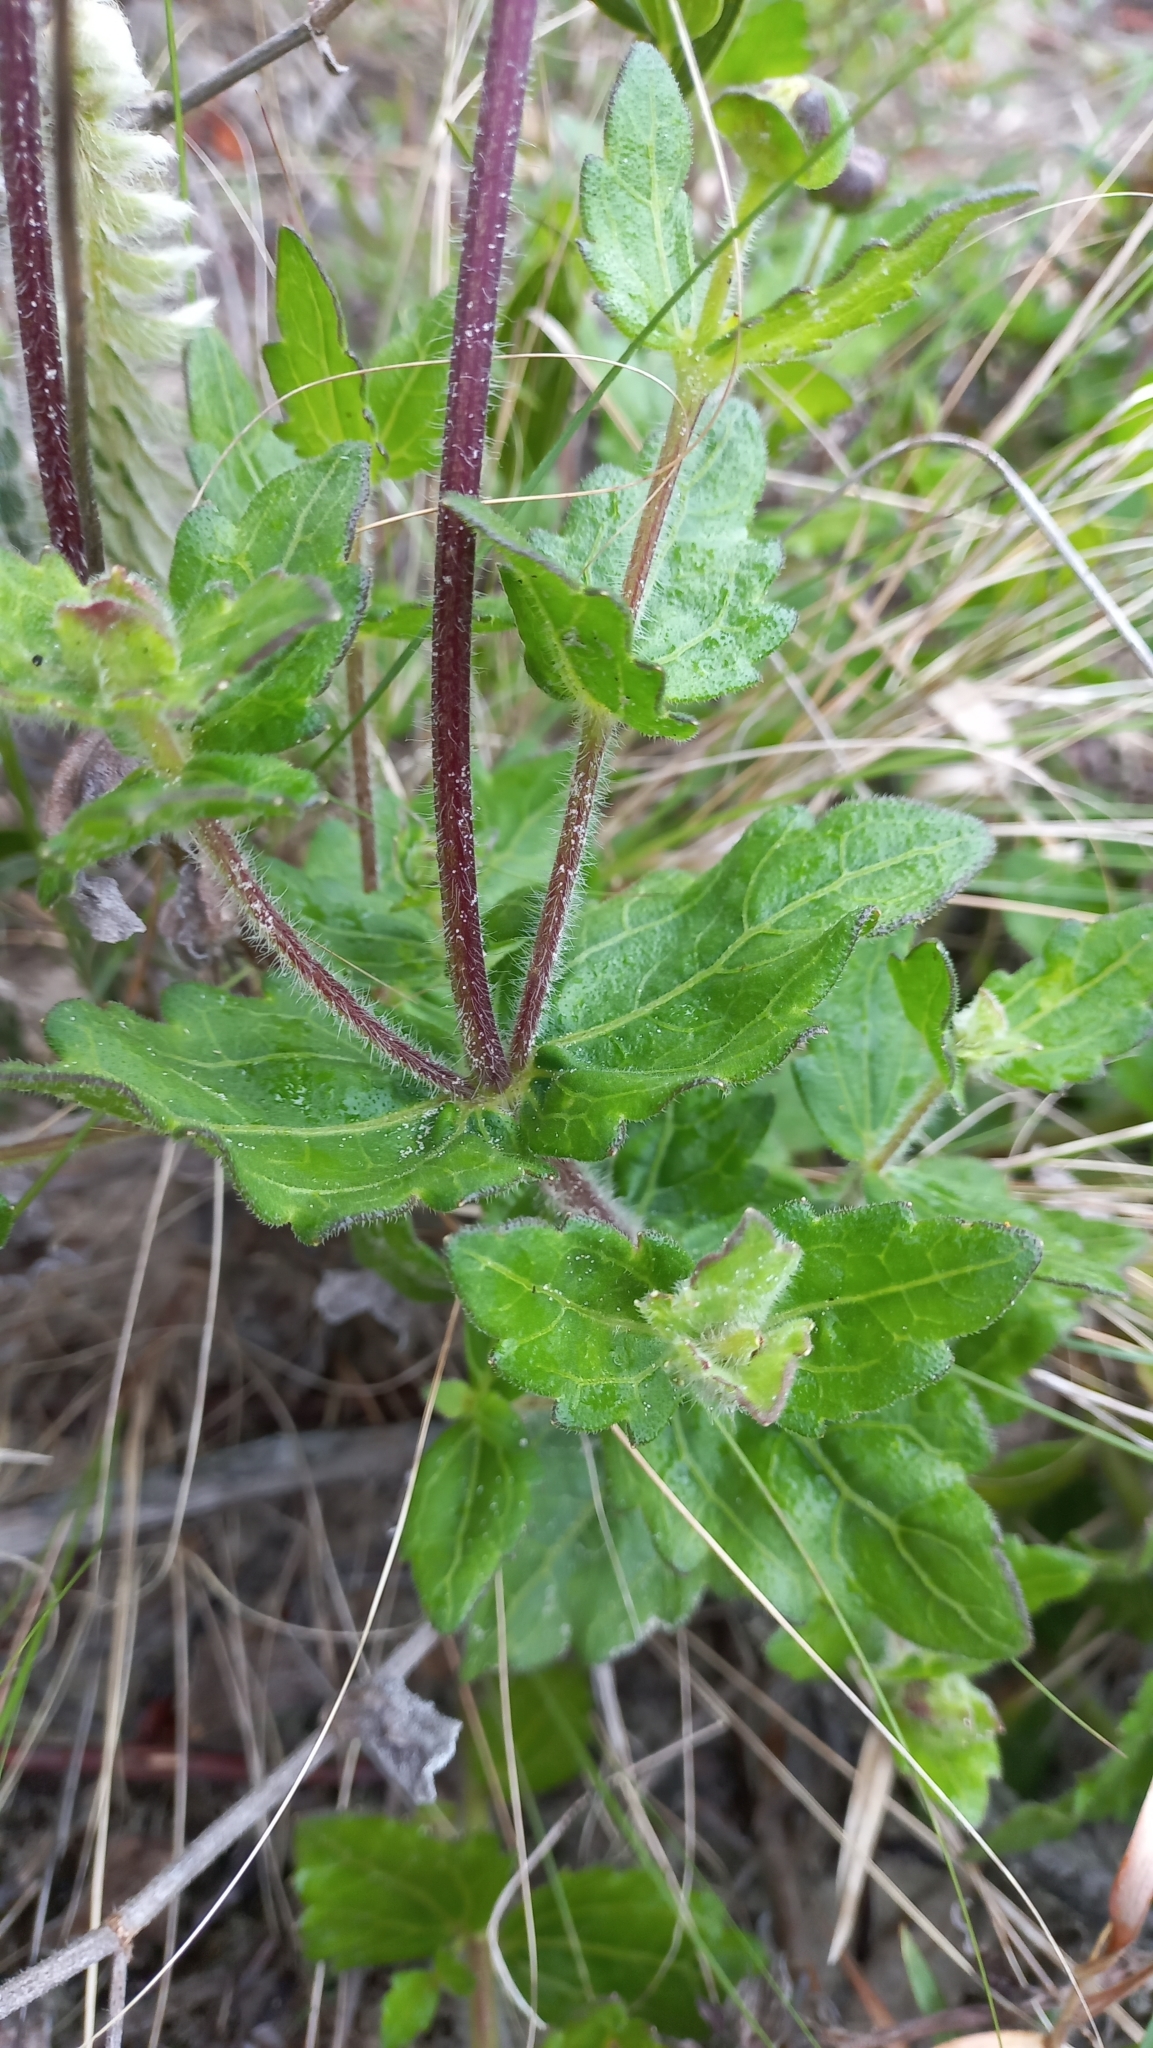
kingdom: Plantae
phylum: Tracheophyta
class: Magnoliopsida
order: Asterales
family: Asteraceae
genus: Calea
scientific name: Calea uniflora
